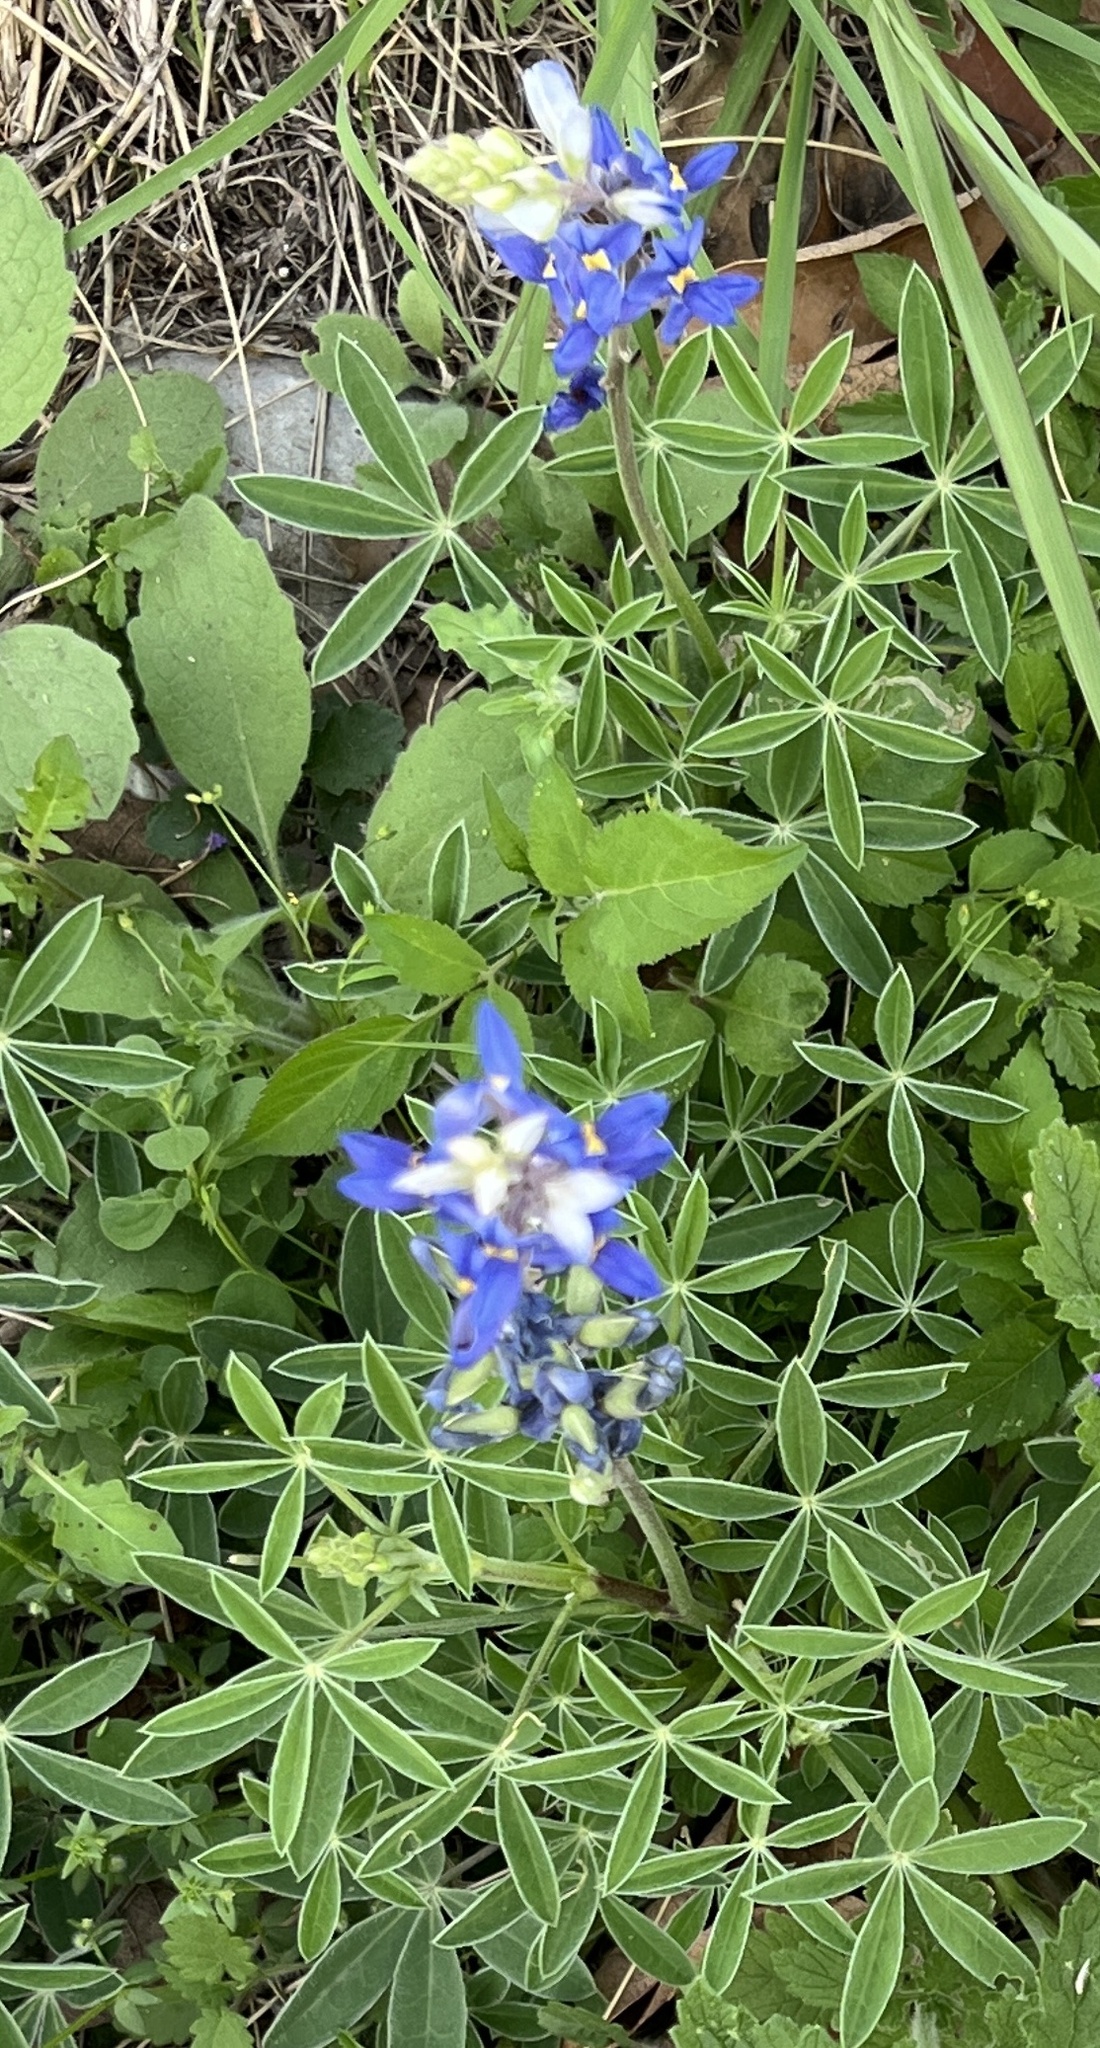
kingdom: Plantae
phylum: Tracheophyta
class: Magnoliopsida
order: Fabales
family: Fabaceae
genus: Lupinus
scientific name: Lupinus texensis
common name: Texas bluebonnet
